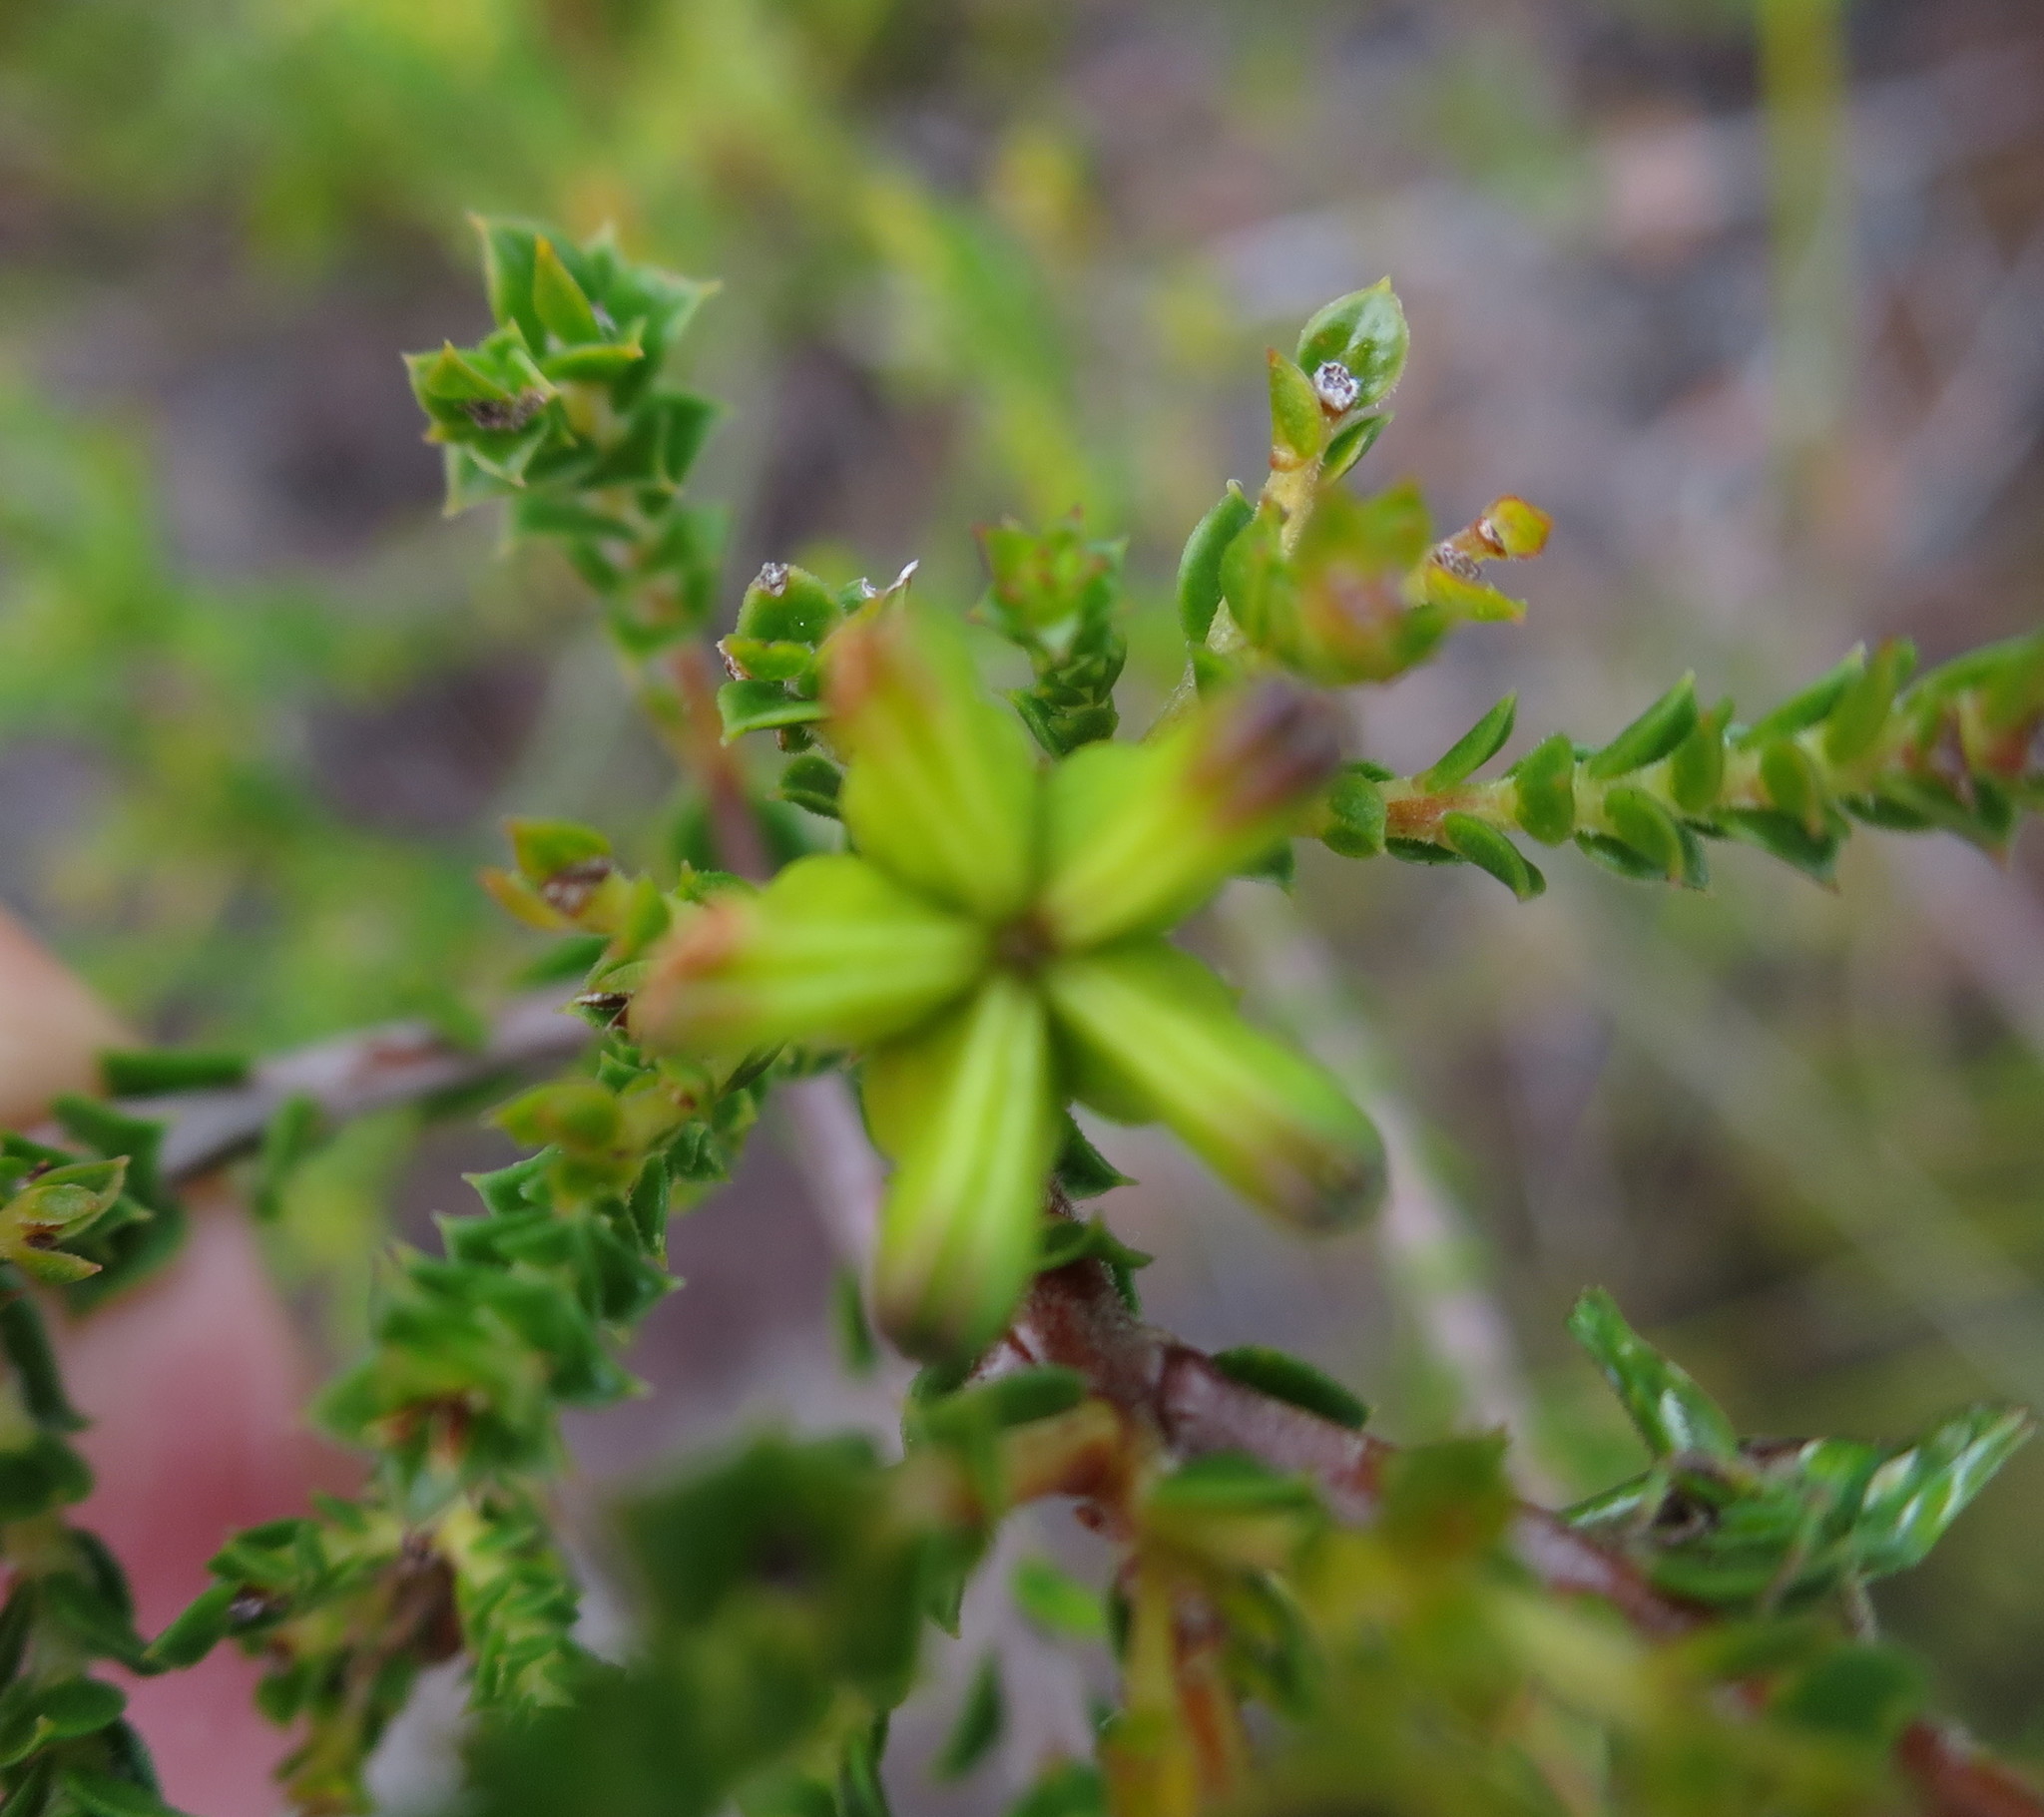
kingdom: Plantae
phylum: Tracheophyta
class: Magnoliopsida
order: Sapindales
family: Rutaceae
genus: Diosma
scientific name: Diosma echinulata
